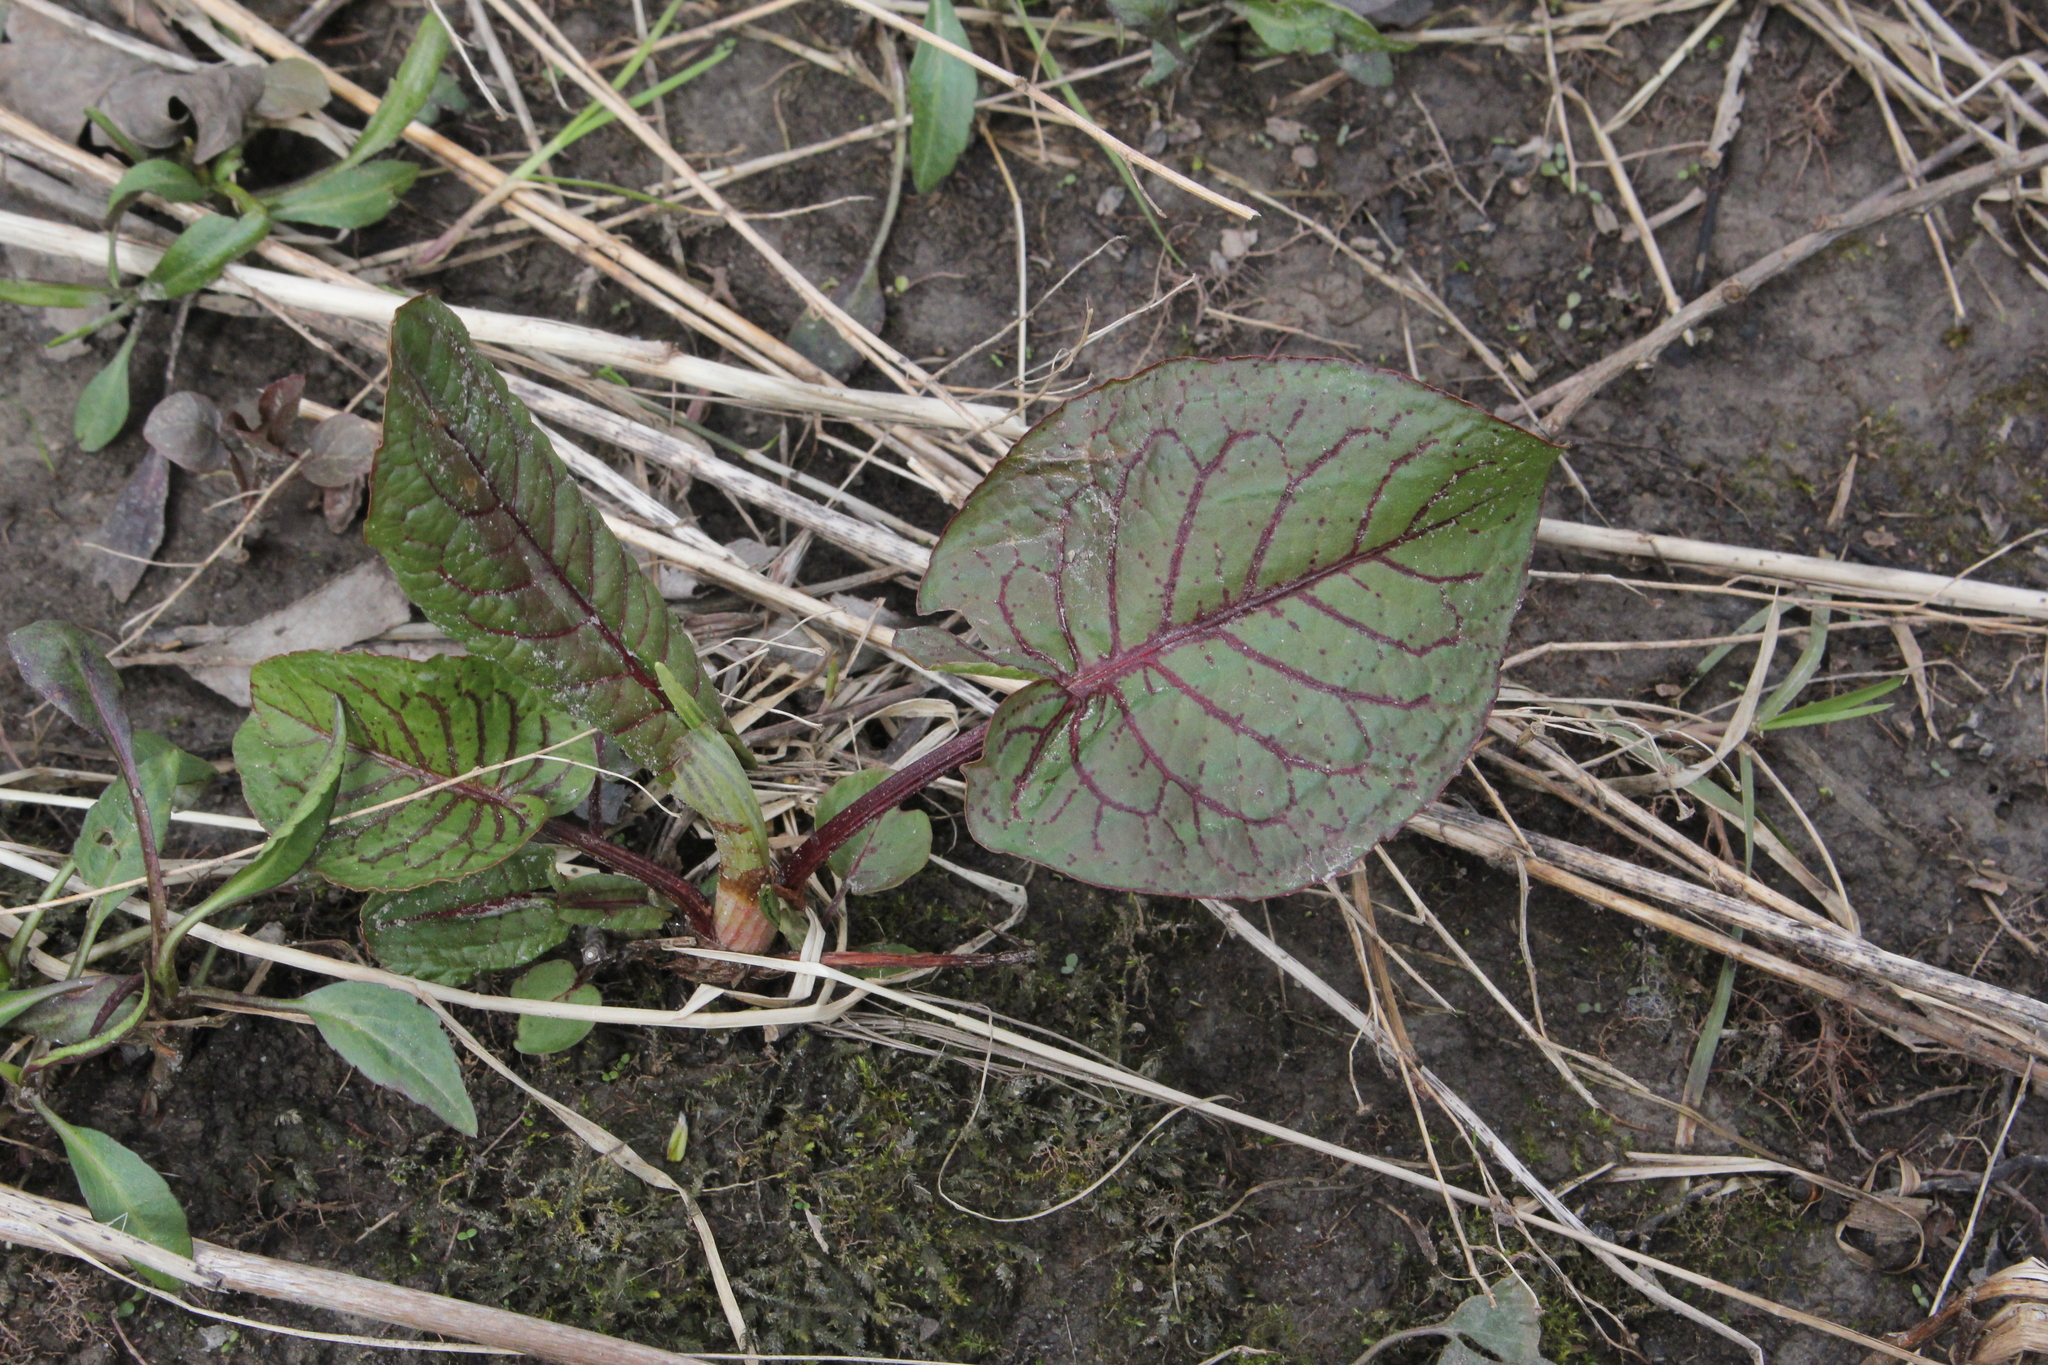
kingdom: Plantae
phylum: Tracheophyta
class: Magnoliopsida
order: Caryophyllales
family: Polygonaceae
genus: Rumex
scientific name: Rumex obtusifolius
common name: Bitter dock
